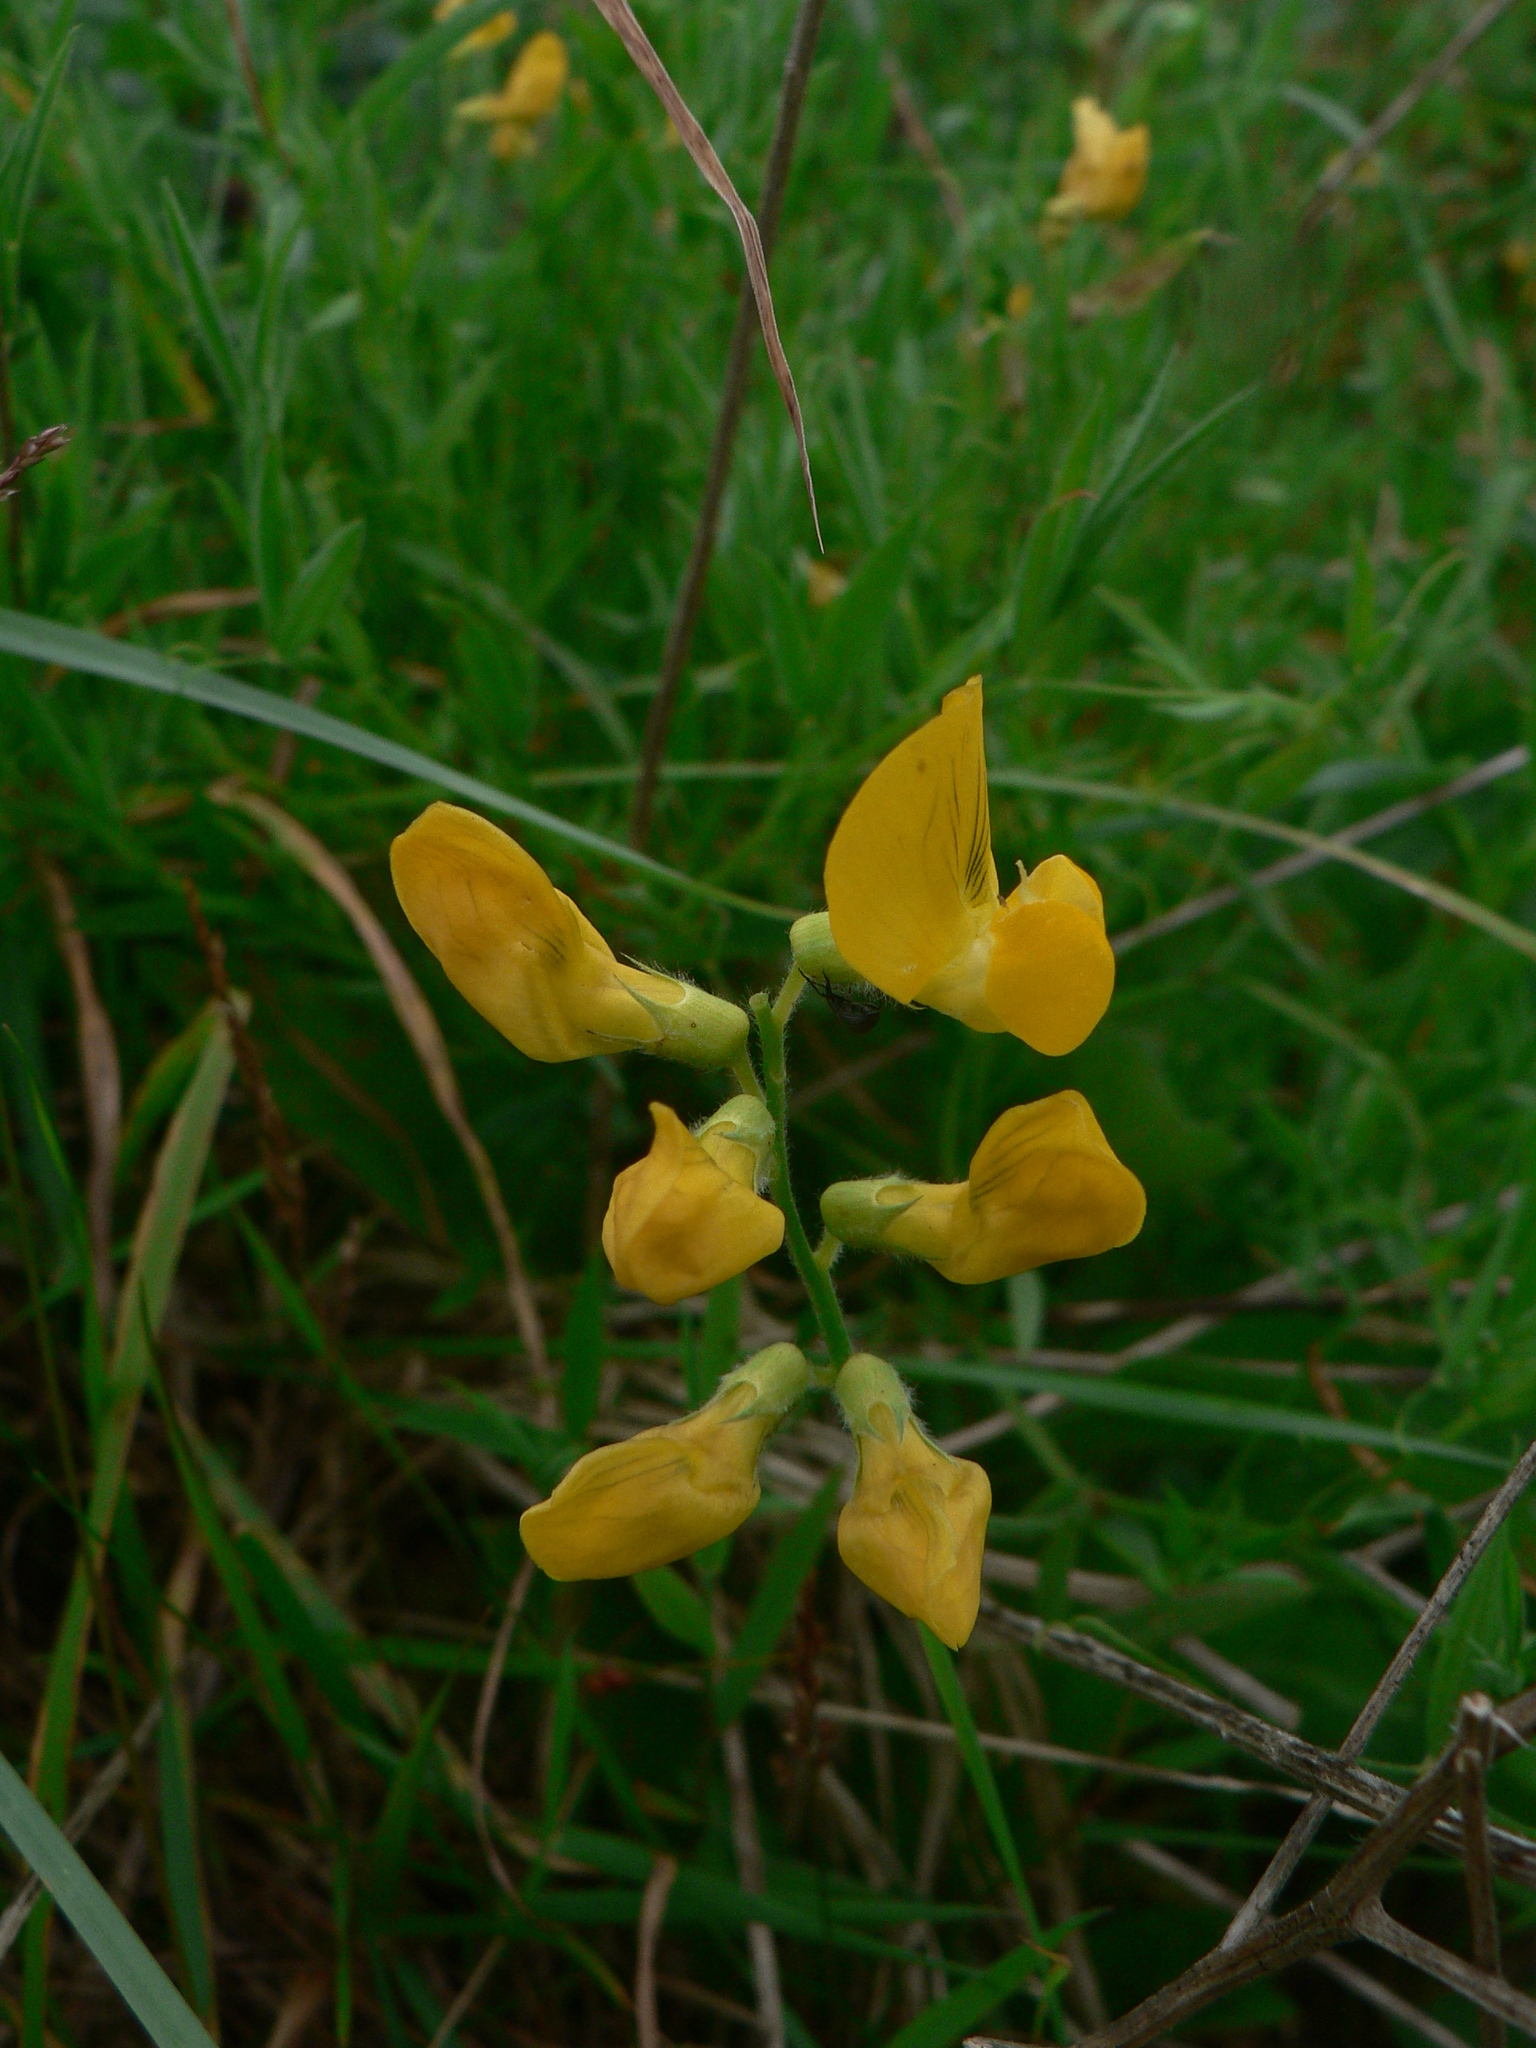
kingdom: Plantae
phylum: Tracheophyta
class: Magnoliopsida
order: Fabales
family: Fabaceae
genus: Lathyrus
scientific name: Lathyrus pratensis
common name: Meadow vetchling
